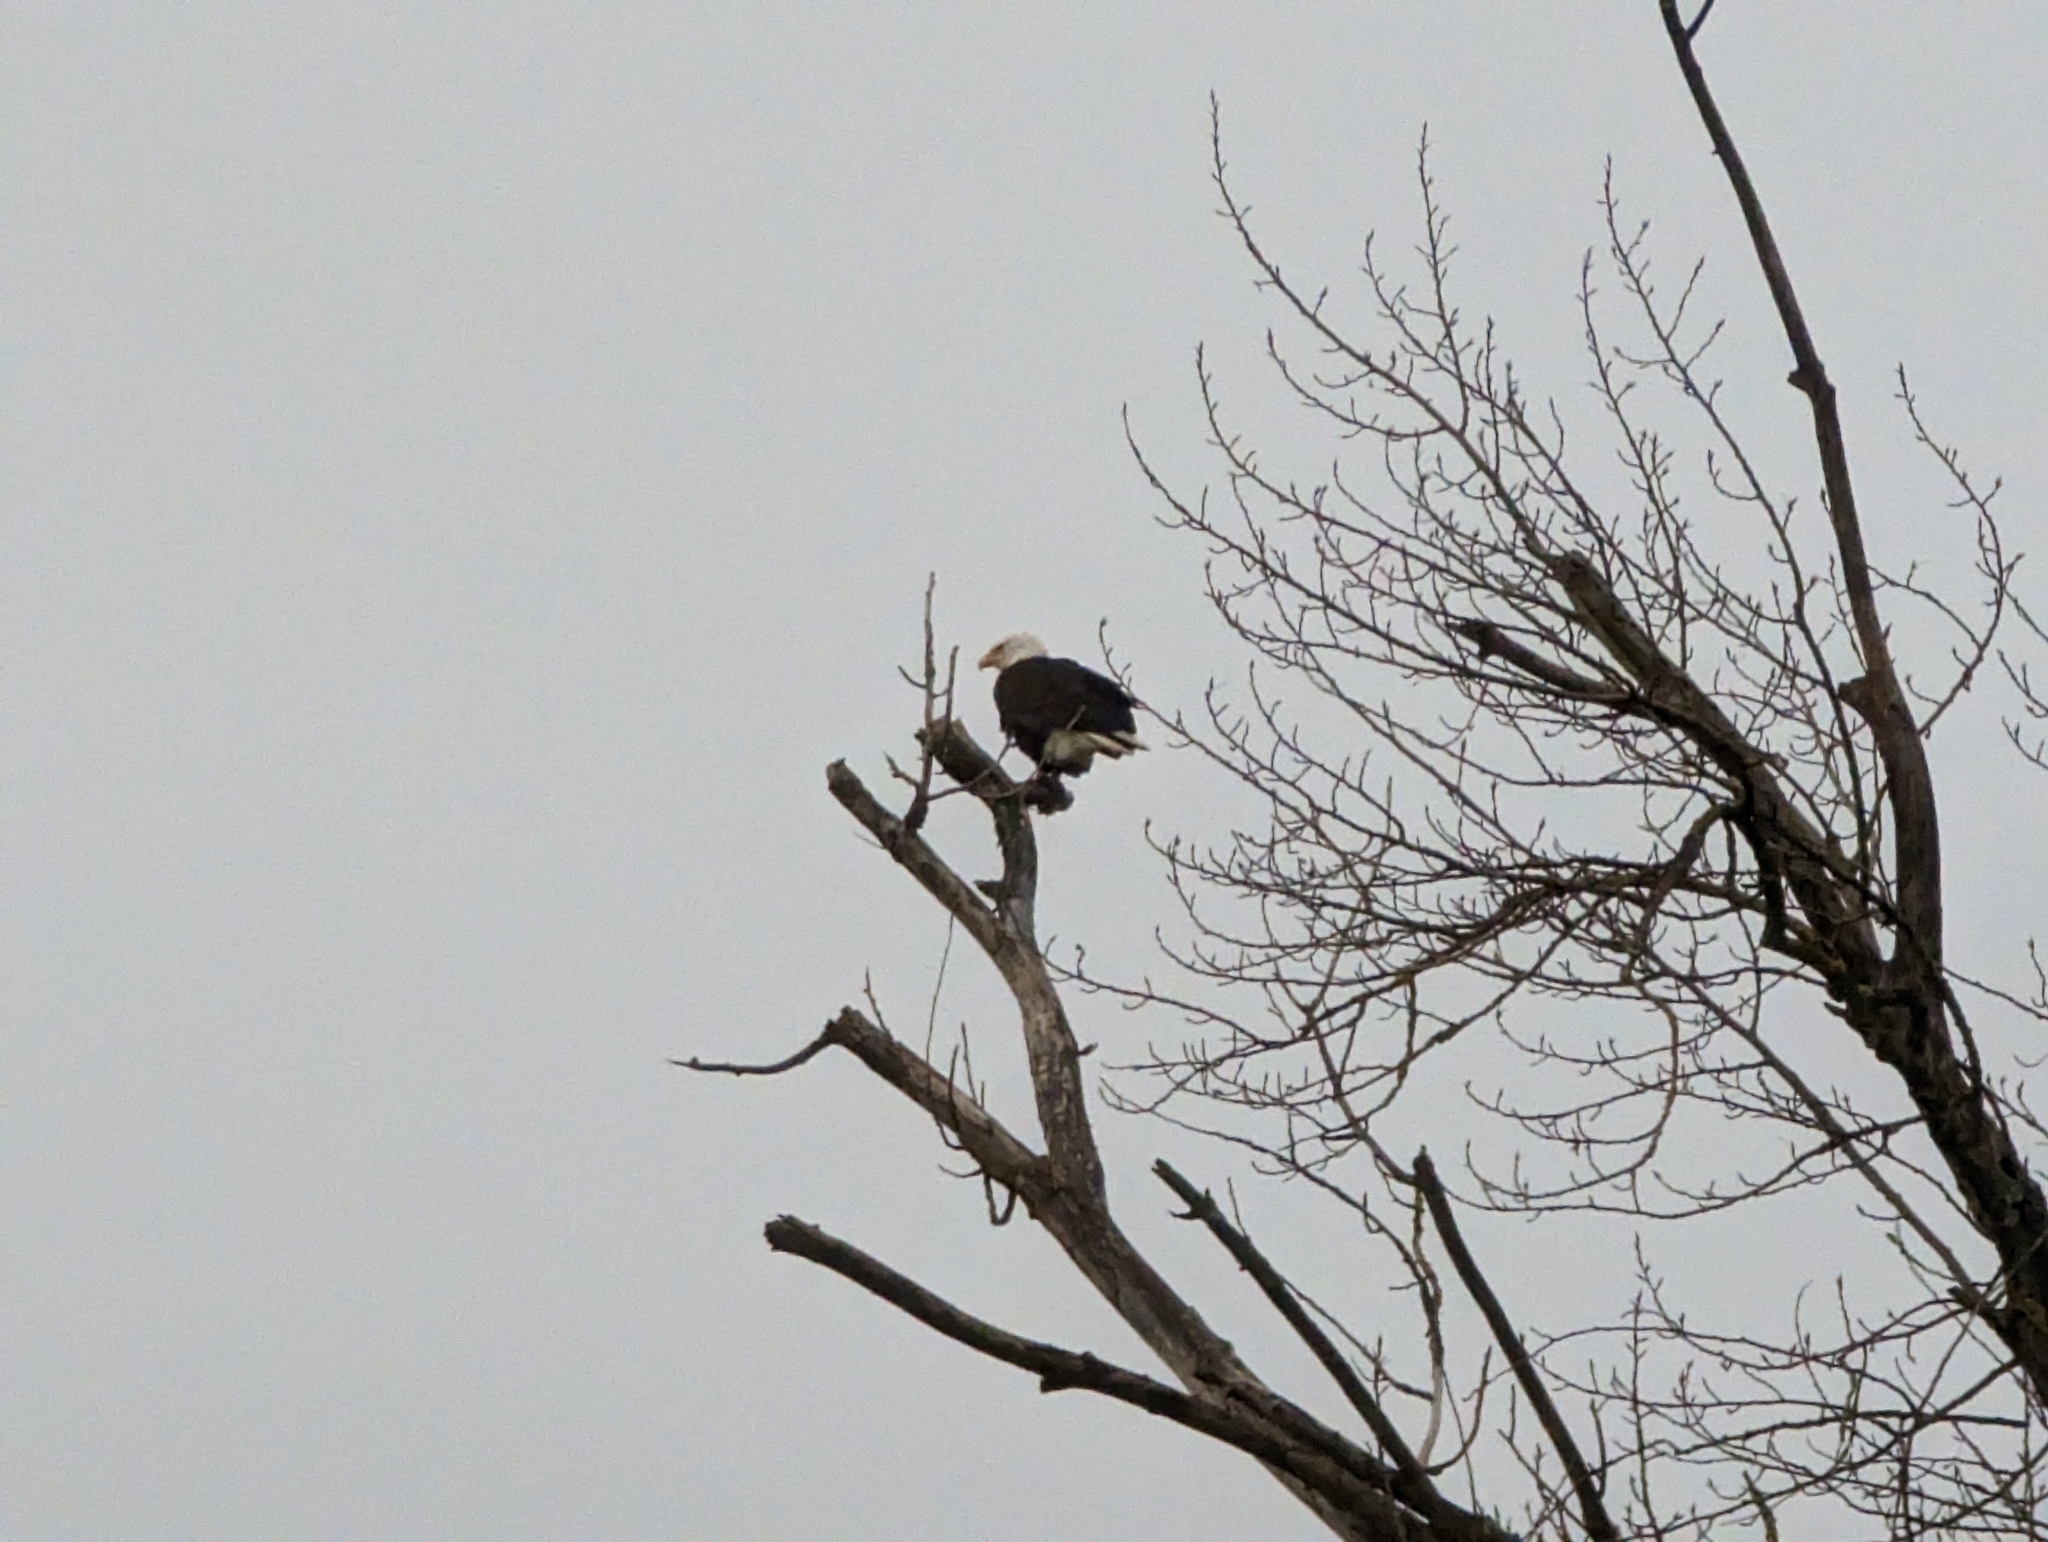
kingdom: Animalia
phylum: Chordata
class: Aves
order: Accipitriformes
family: Accipitridae
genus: Haliaeetus
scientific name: Haliaeetus leucocephalus
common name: Bald eagle
